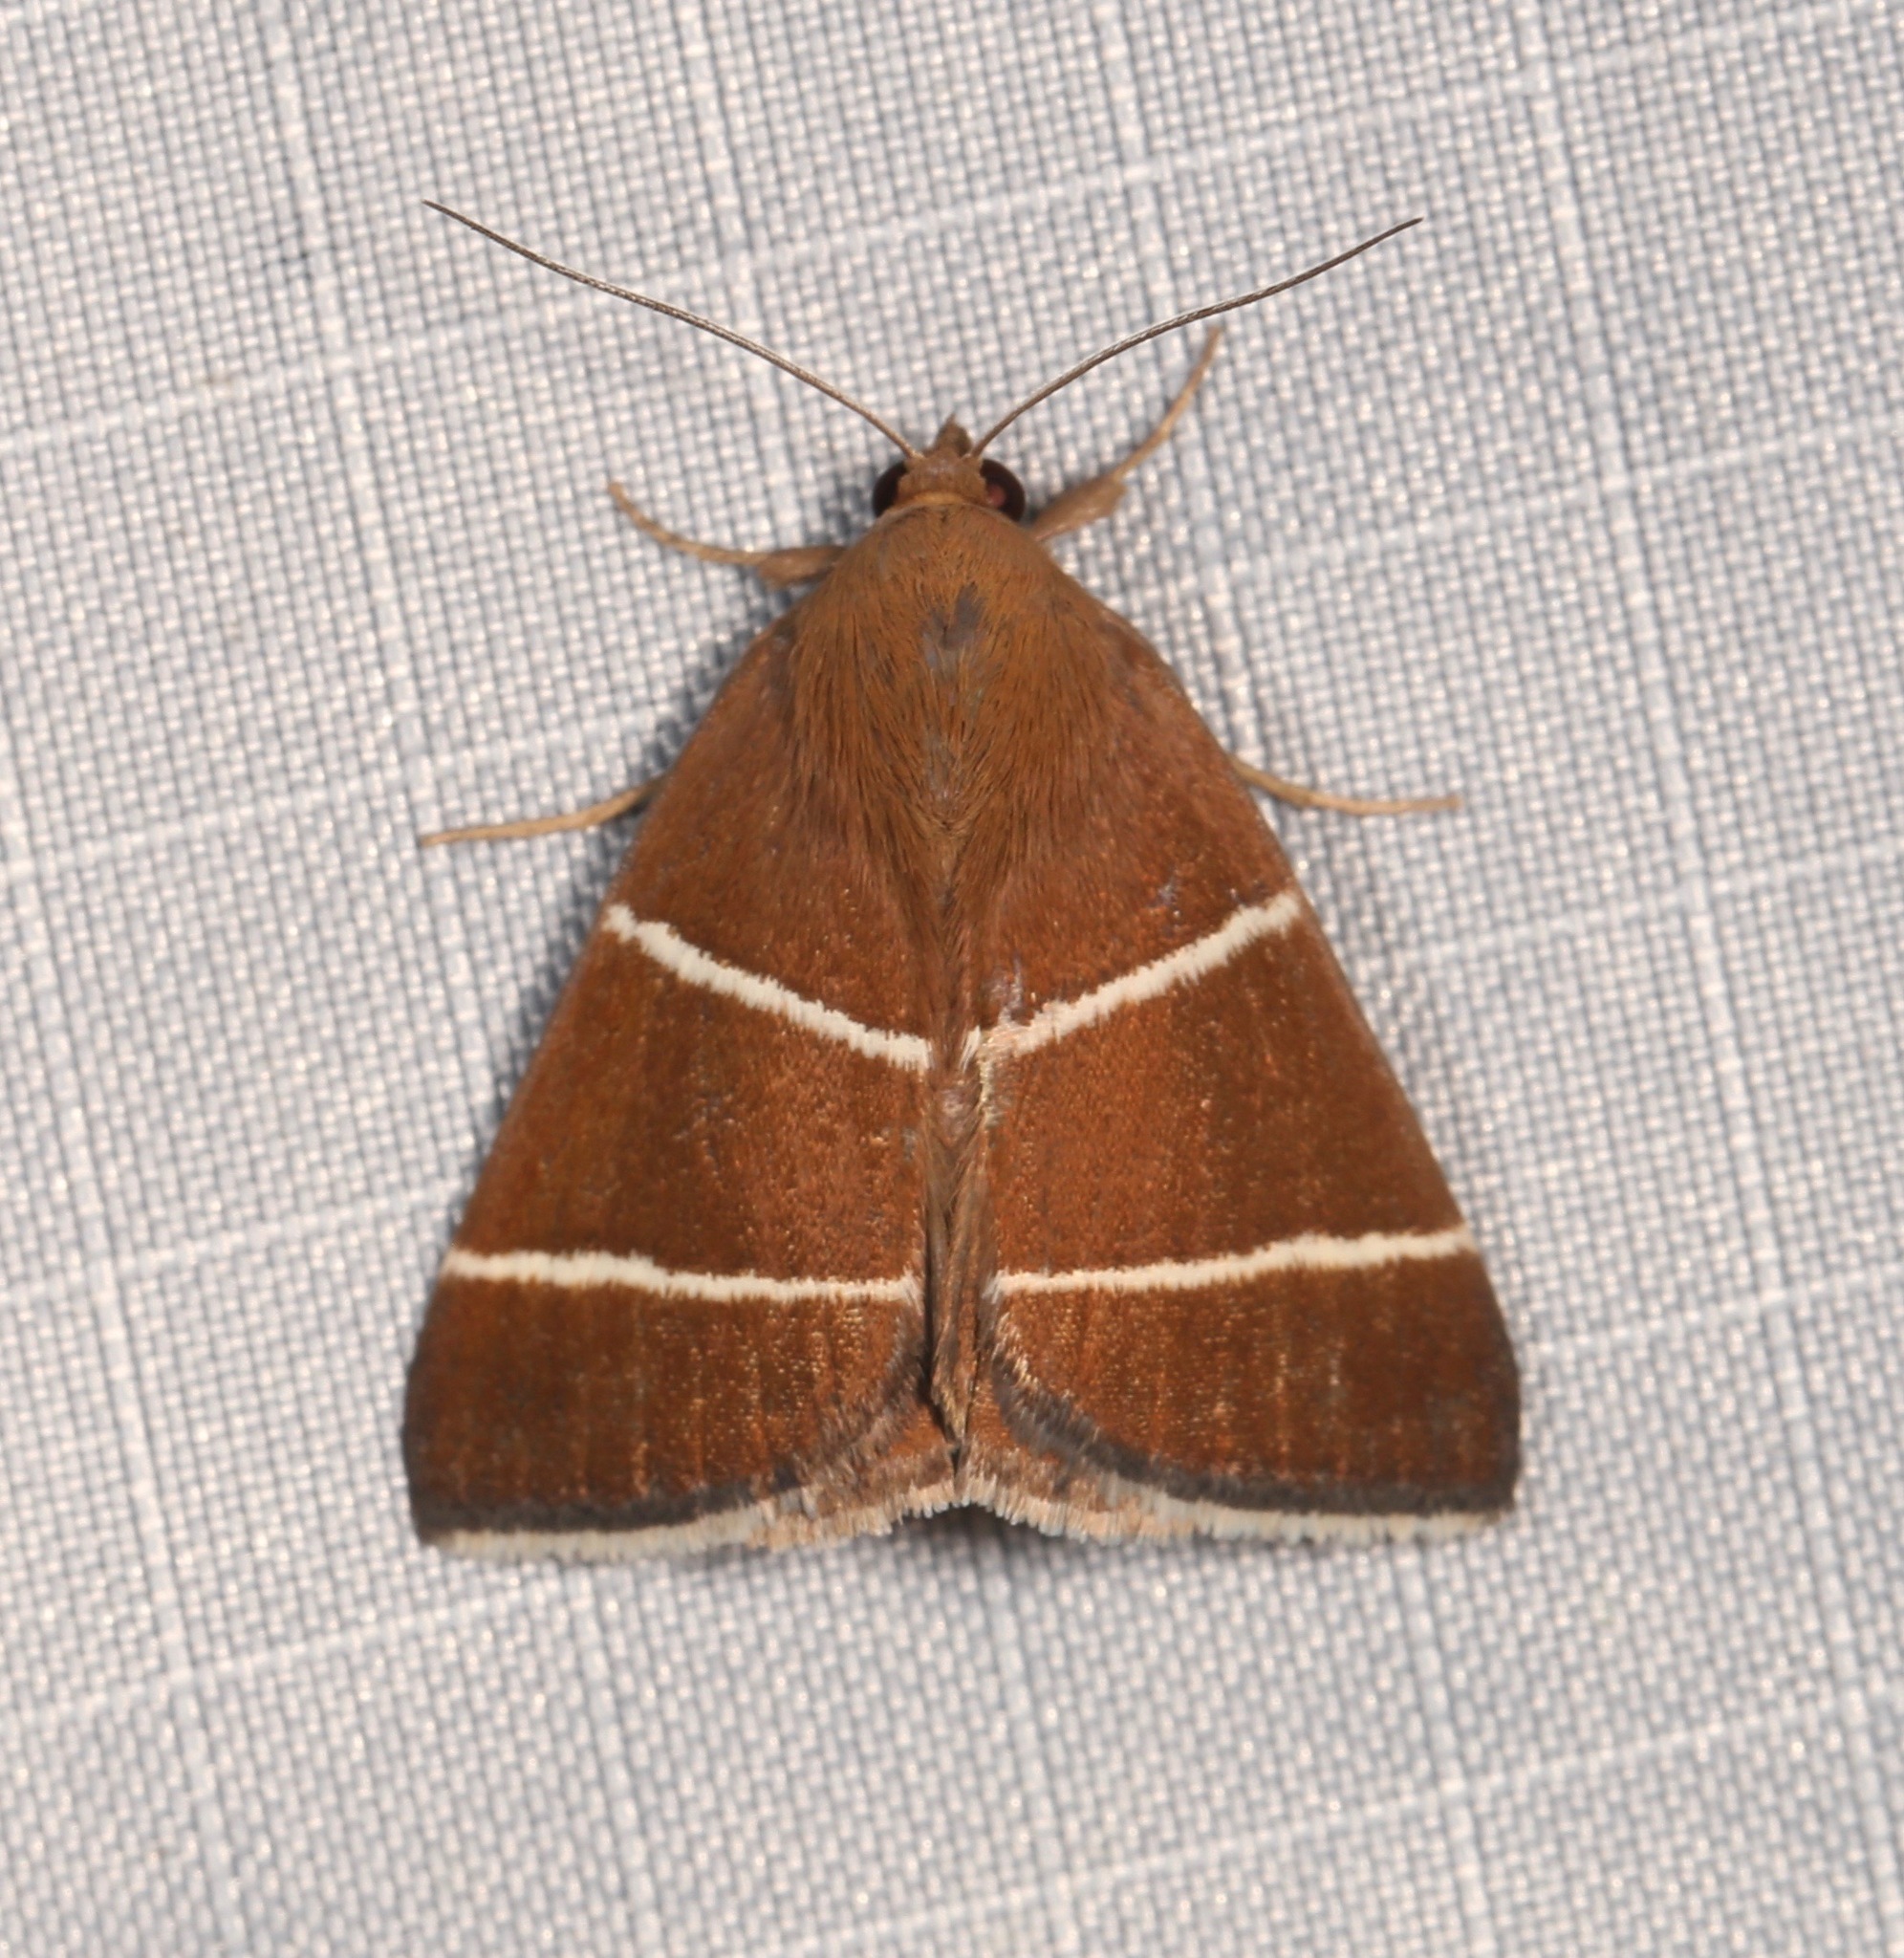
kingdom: Animalia
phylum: Arthropoda
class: Insecta
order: Lepidoptera
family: Erebidae
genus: Argyrostrotis
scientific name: Argyrostrotis quadrifilaris
